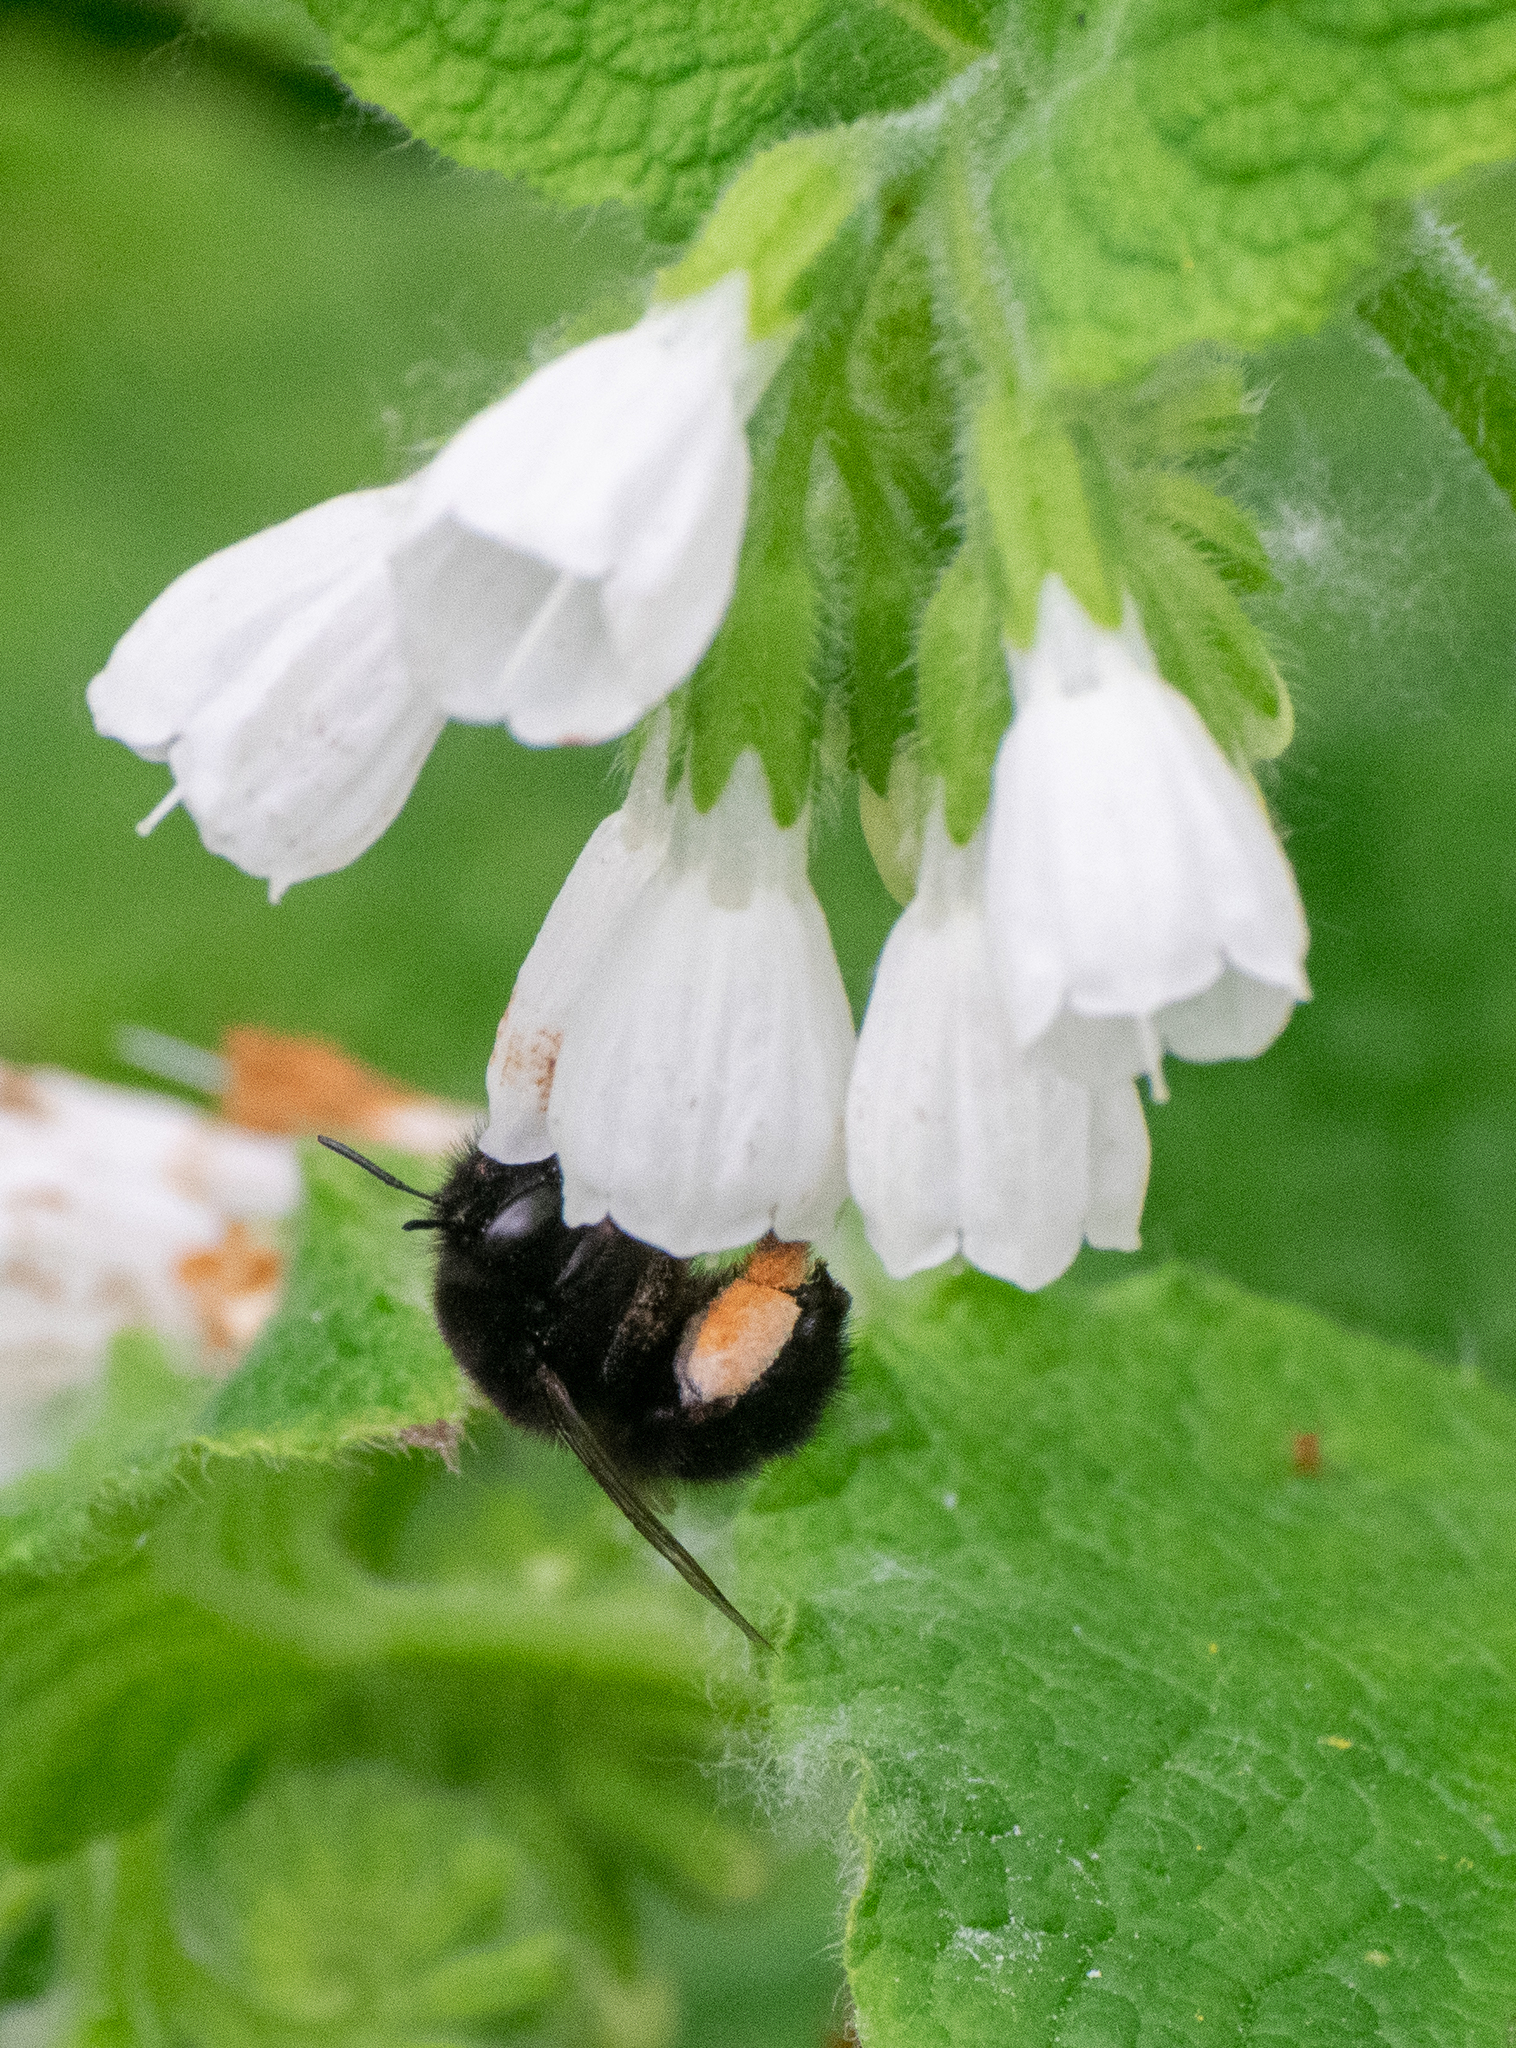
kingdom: Animalia
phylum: Arthropoda
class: Insecta
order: Hymenoptera
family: Apidae
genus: Anthophora
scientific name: Anthophora plumipes
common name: Hairy-footed flower bee
